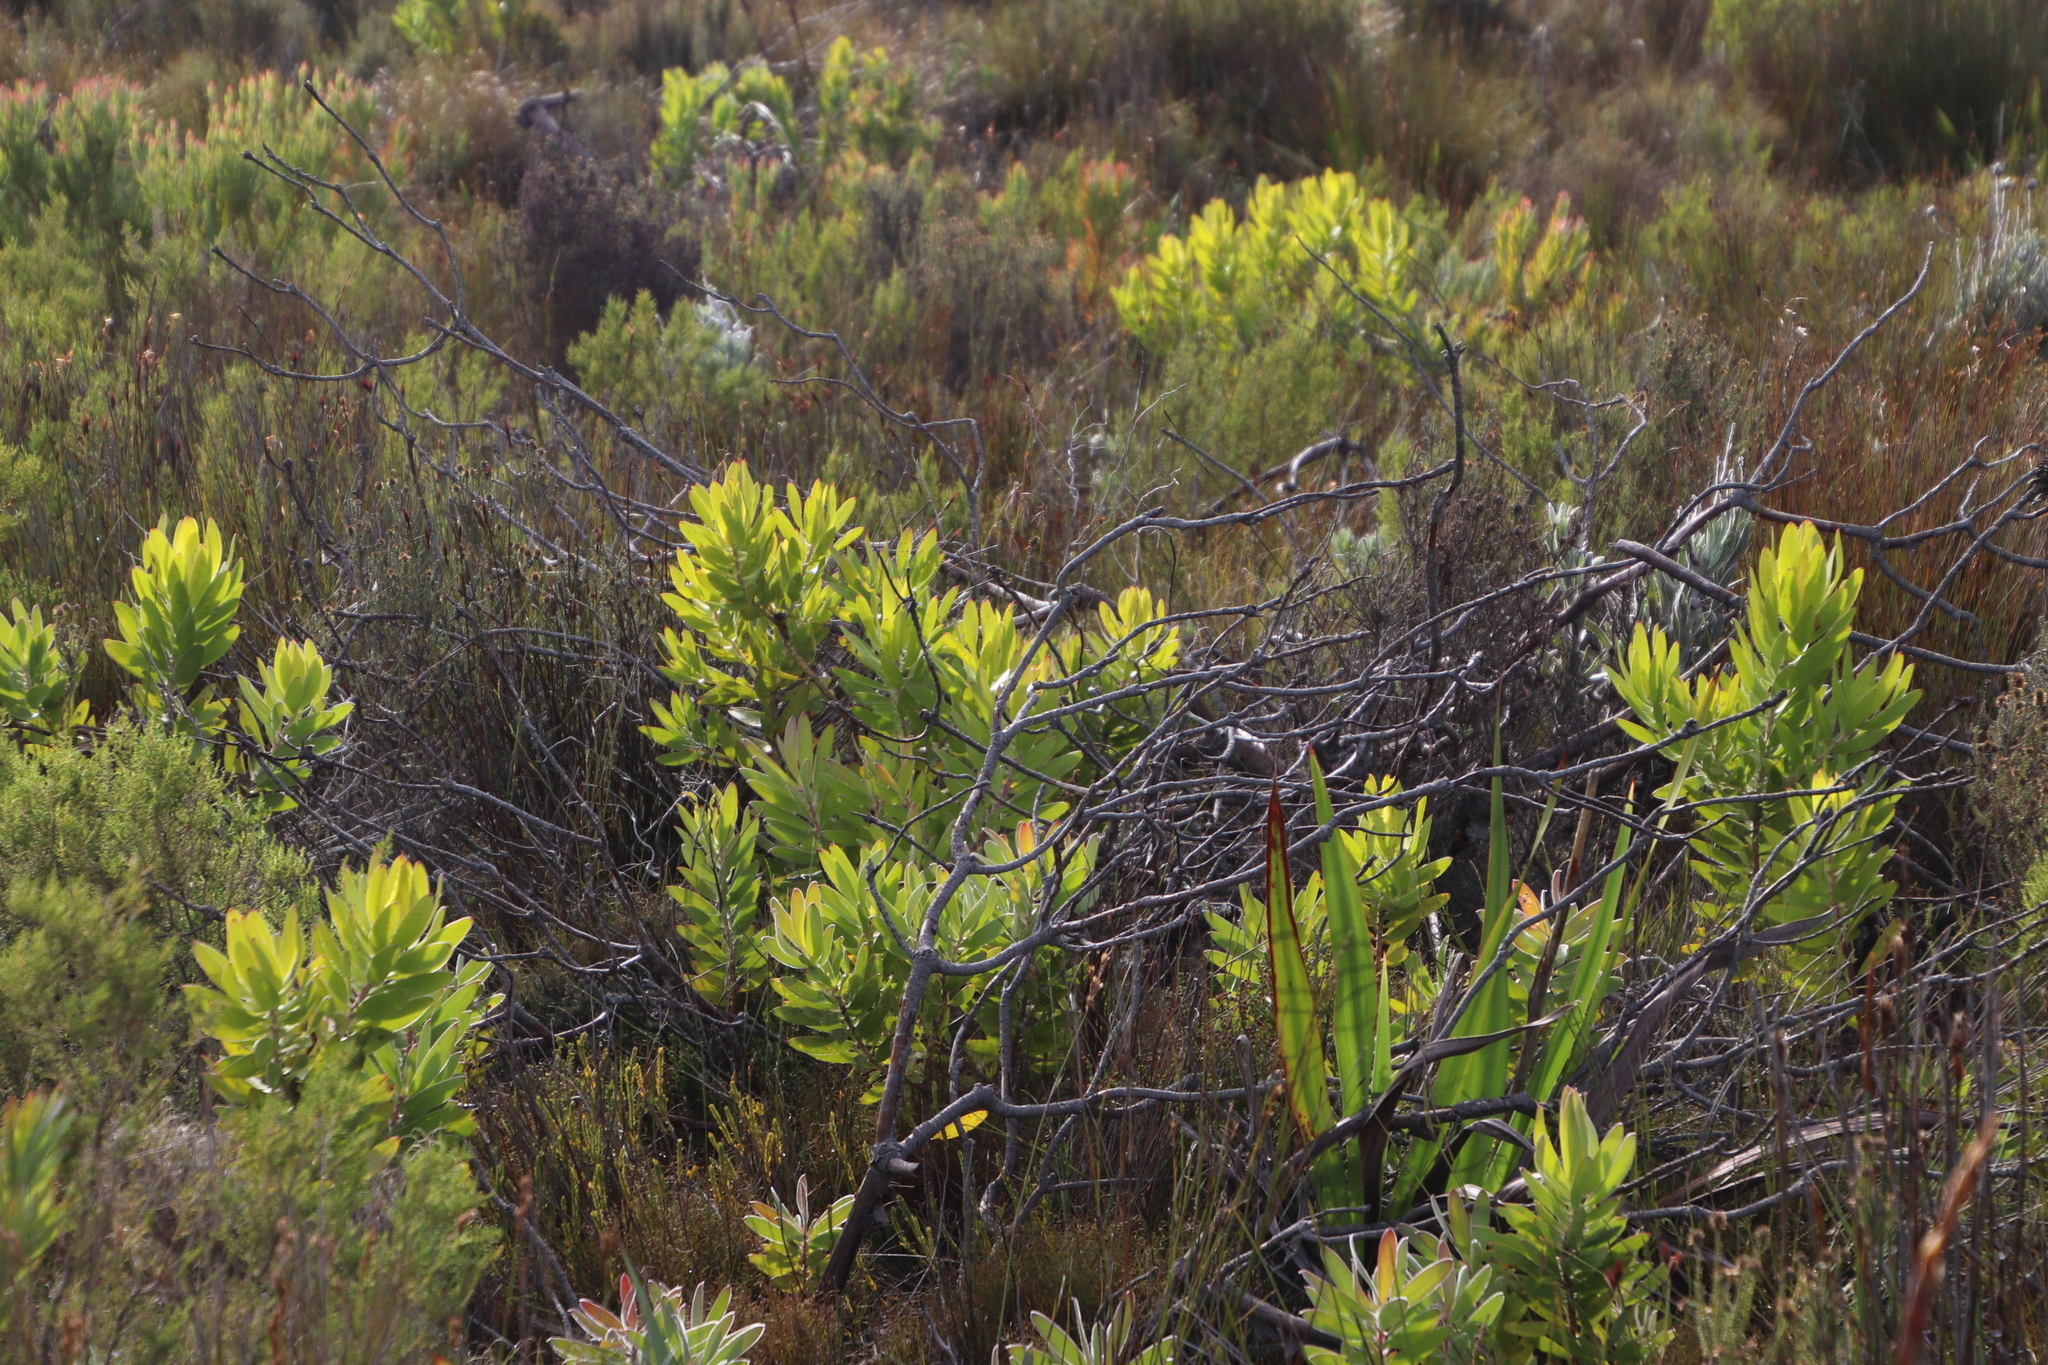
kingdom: Plantae
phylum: Tracheophyta
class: Magnoliopsida
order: Proteales
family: Proteaceae
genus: Leucadendron
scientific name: Leucadendron laureolum
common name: Golden sunshinebush
